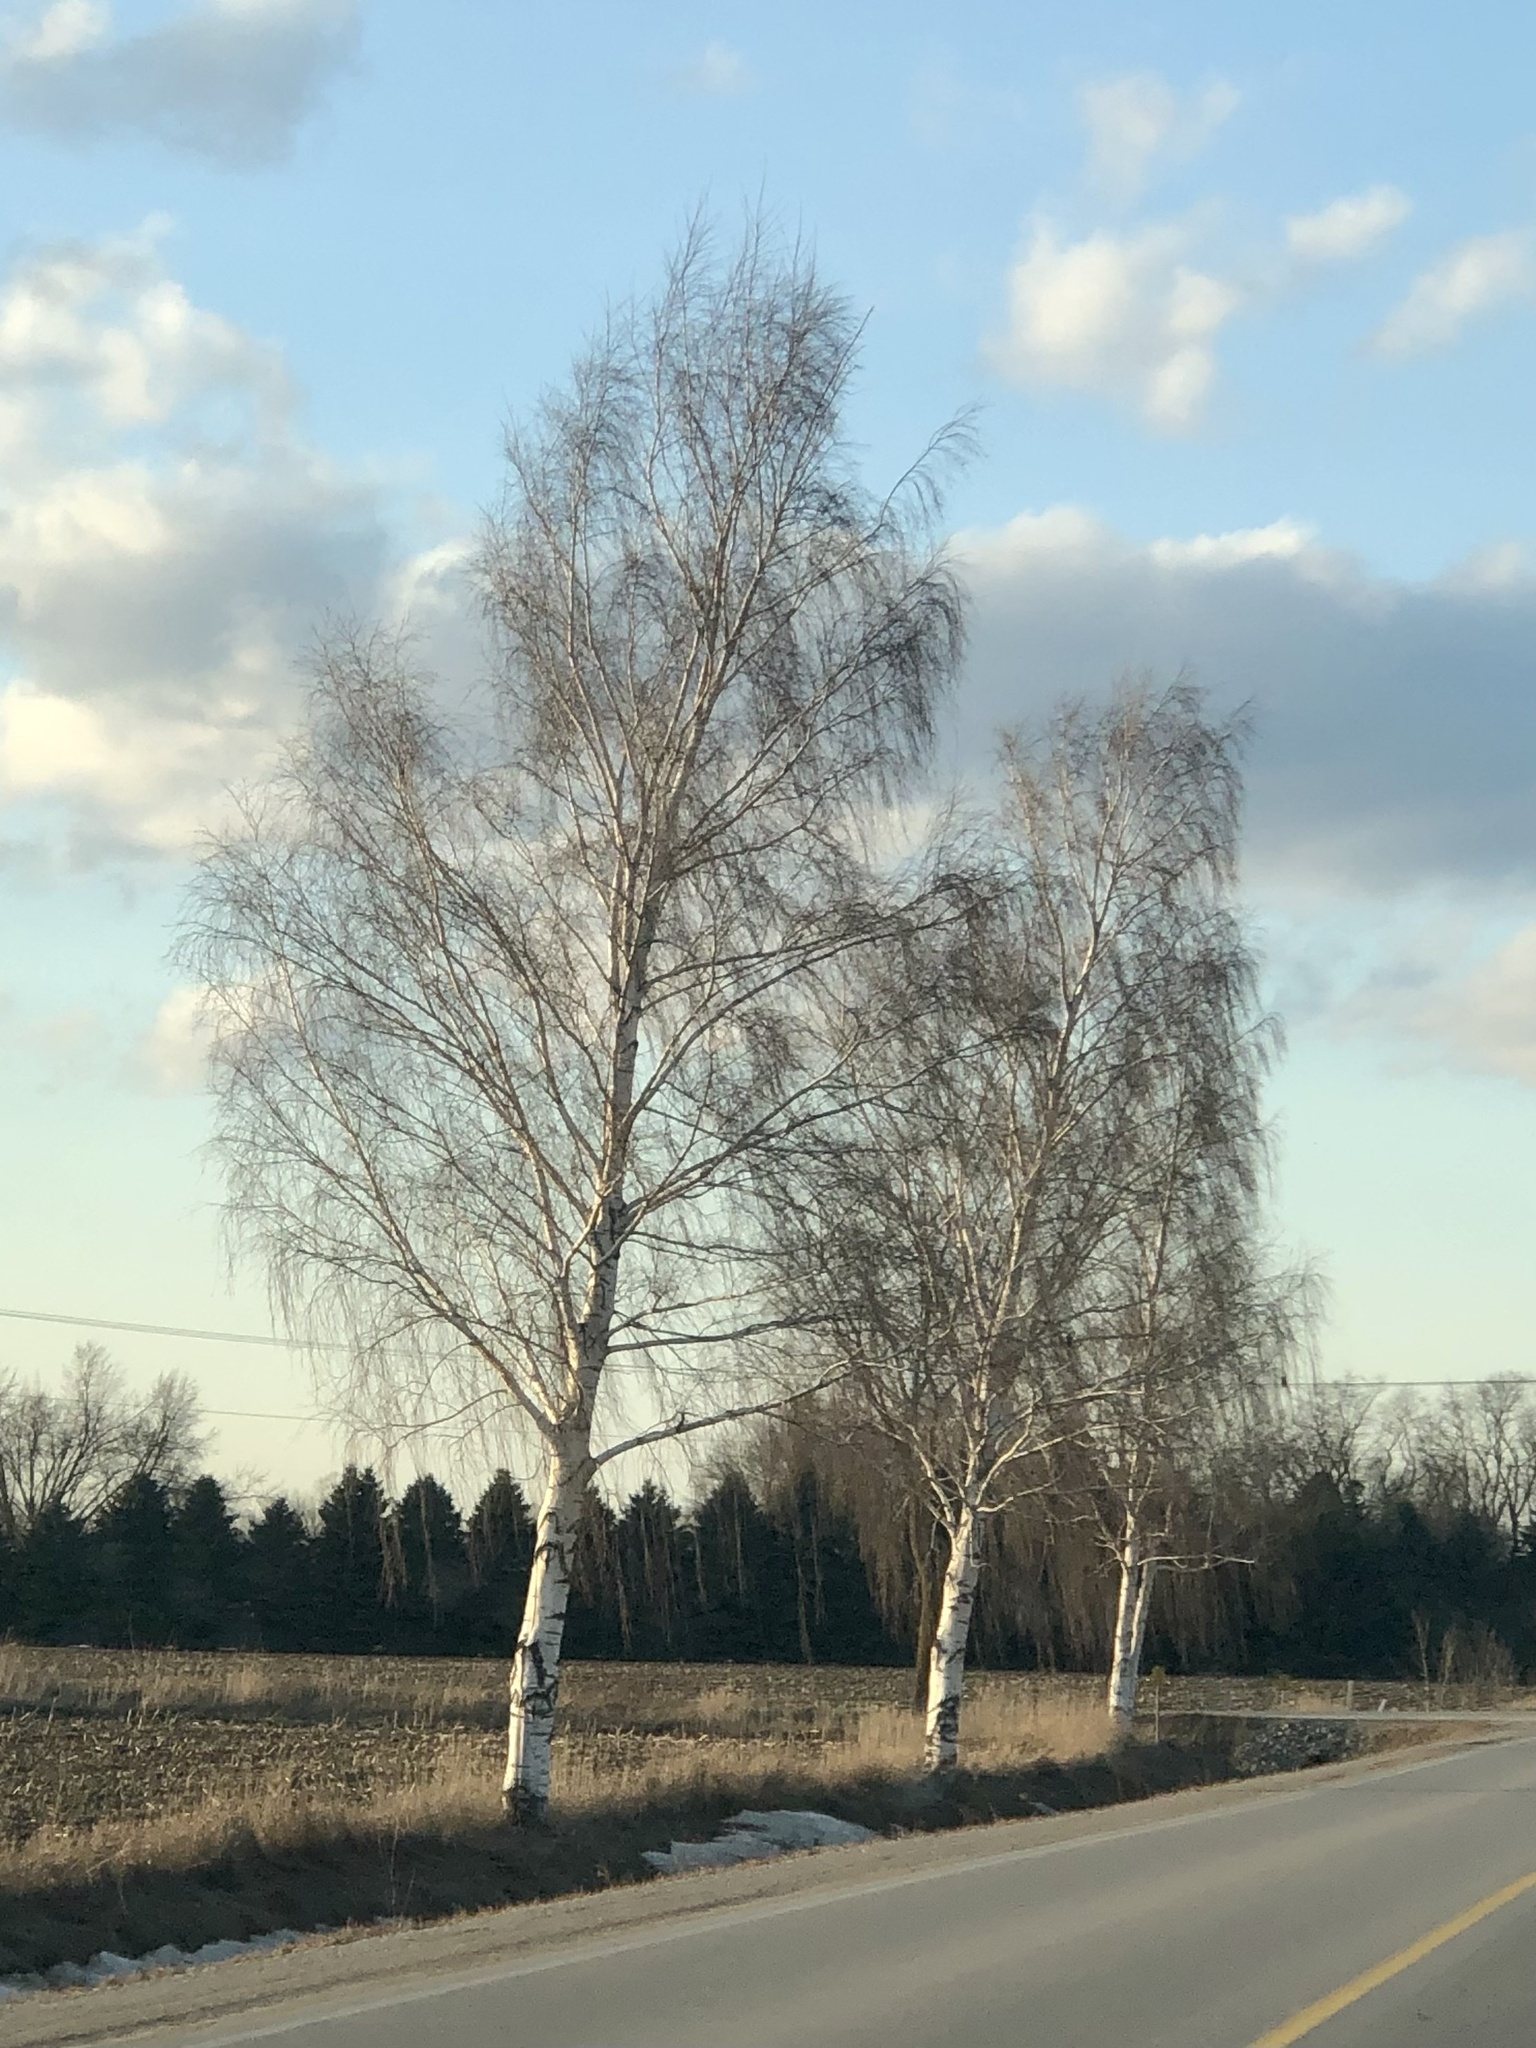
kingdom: Plantae
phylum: Tracheophyta
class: Magnoliopsida
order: Fagales
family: Betulaceae
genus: Betula
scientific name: Betula pendula
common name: Silver birch
